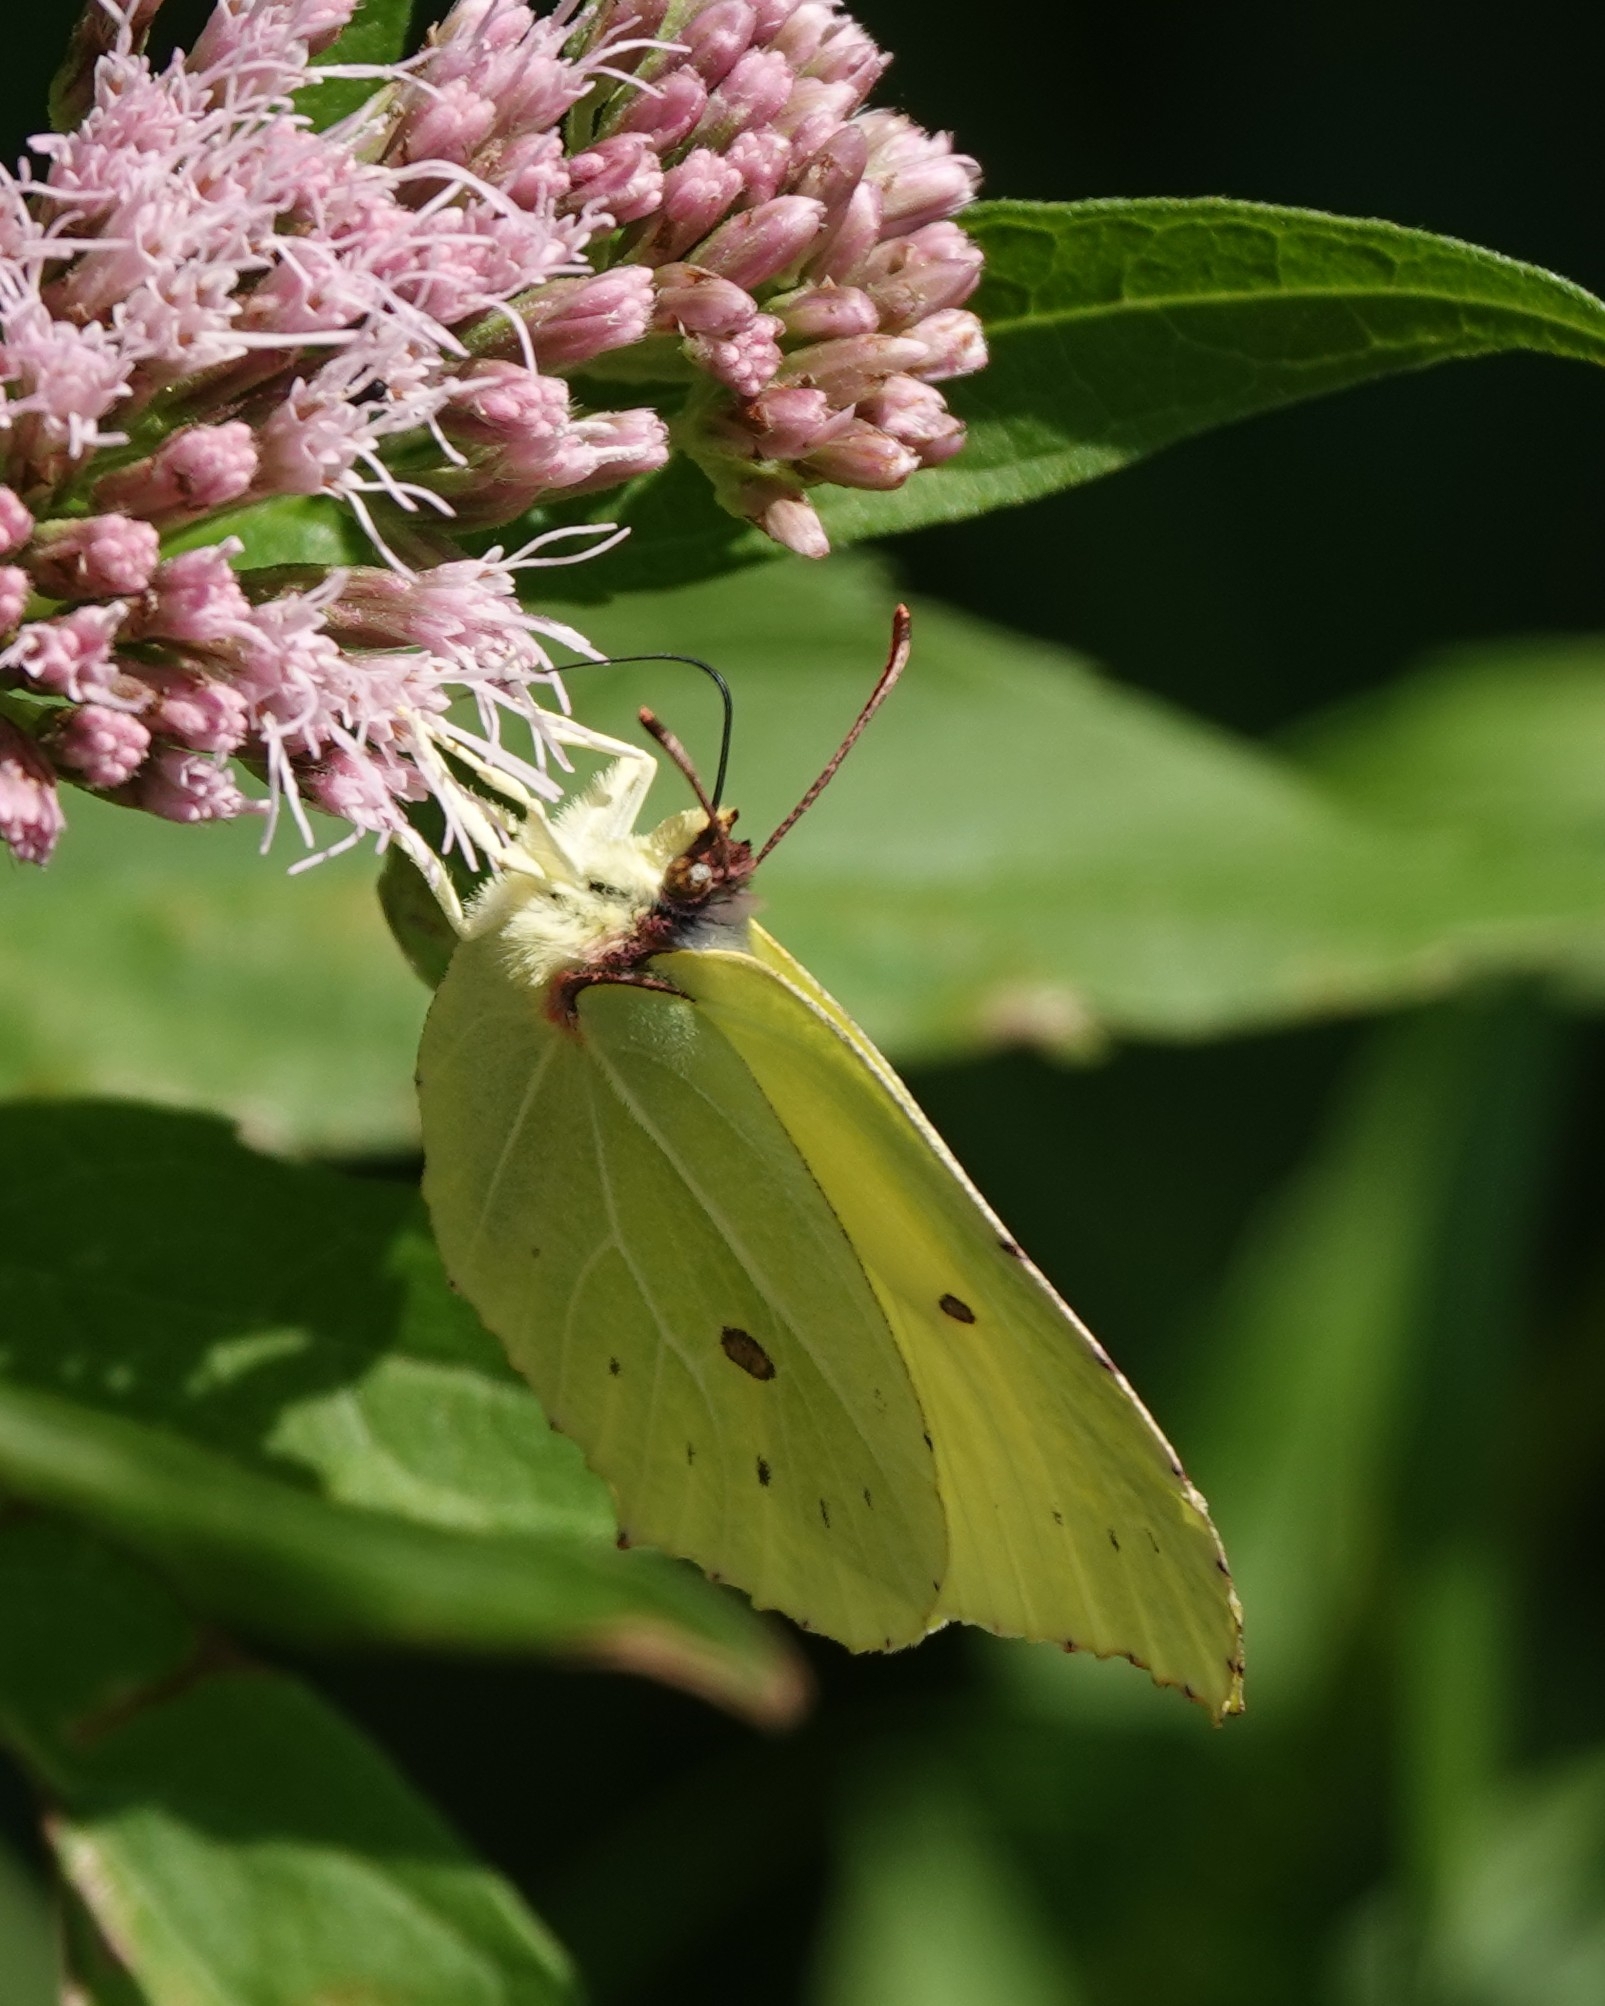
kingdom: Animalia
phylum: Arthropoda
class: Insecta
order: Lepidoptera
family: Pieridae
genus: Gonepteryx
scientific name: Gonepteryx rhamni
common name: Brimstone
